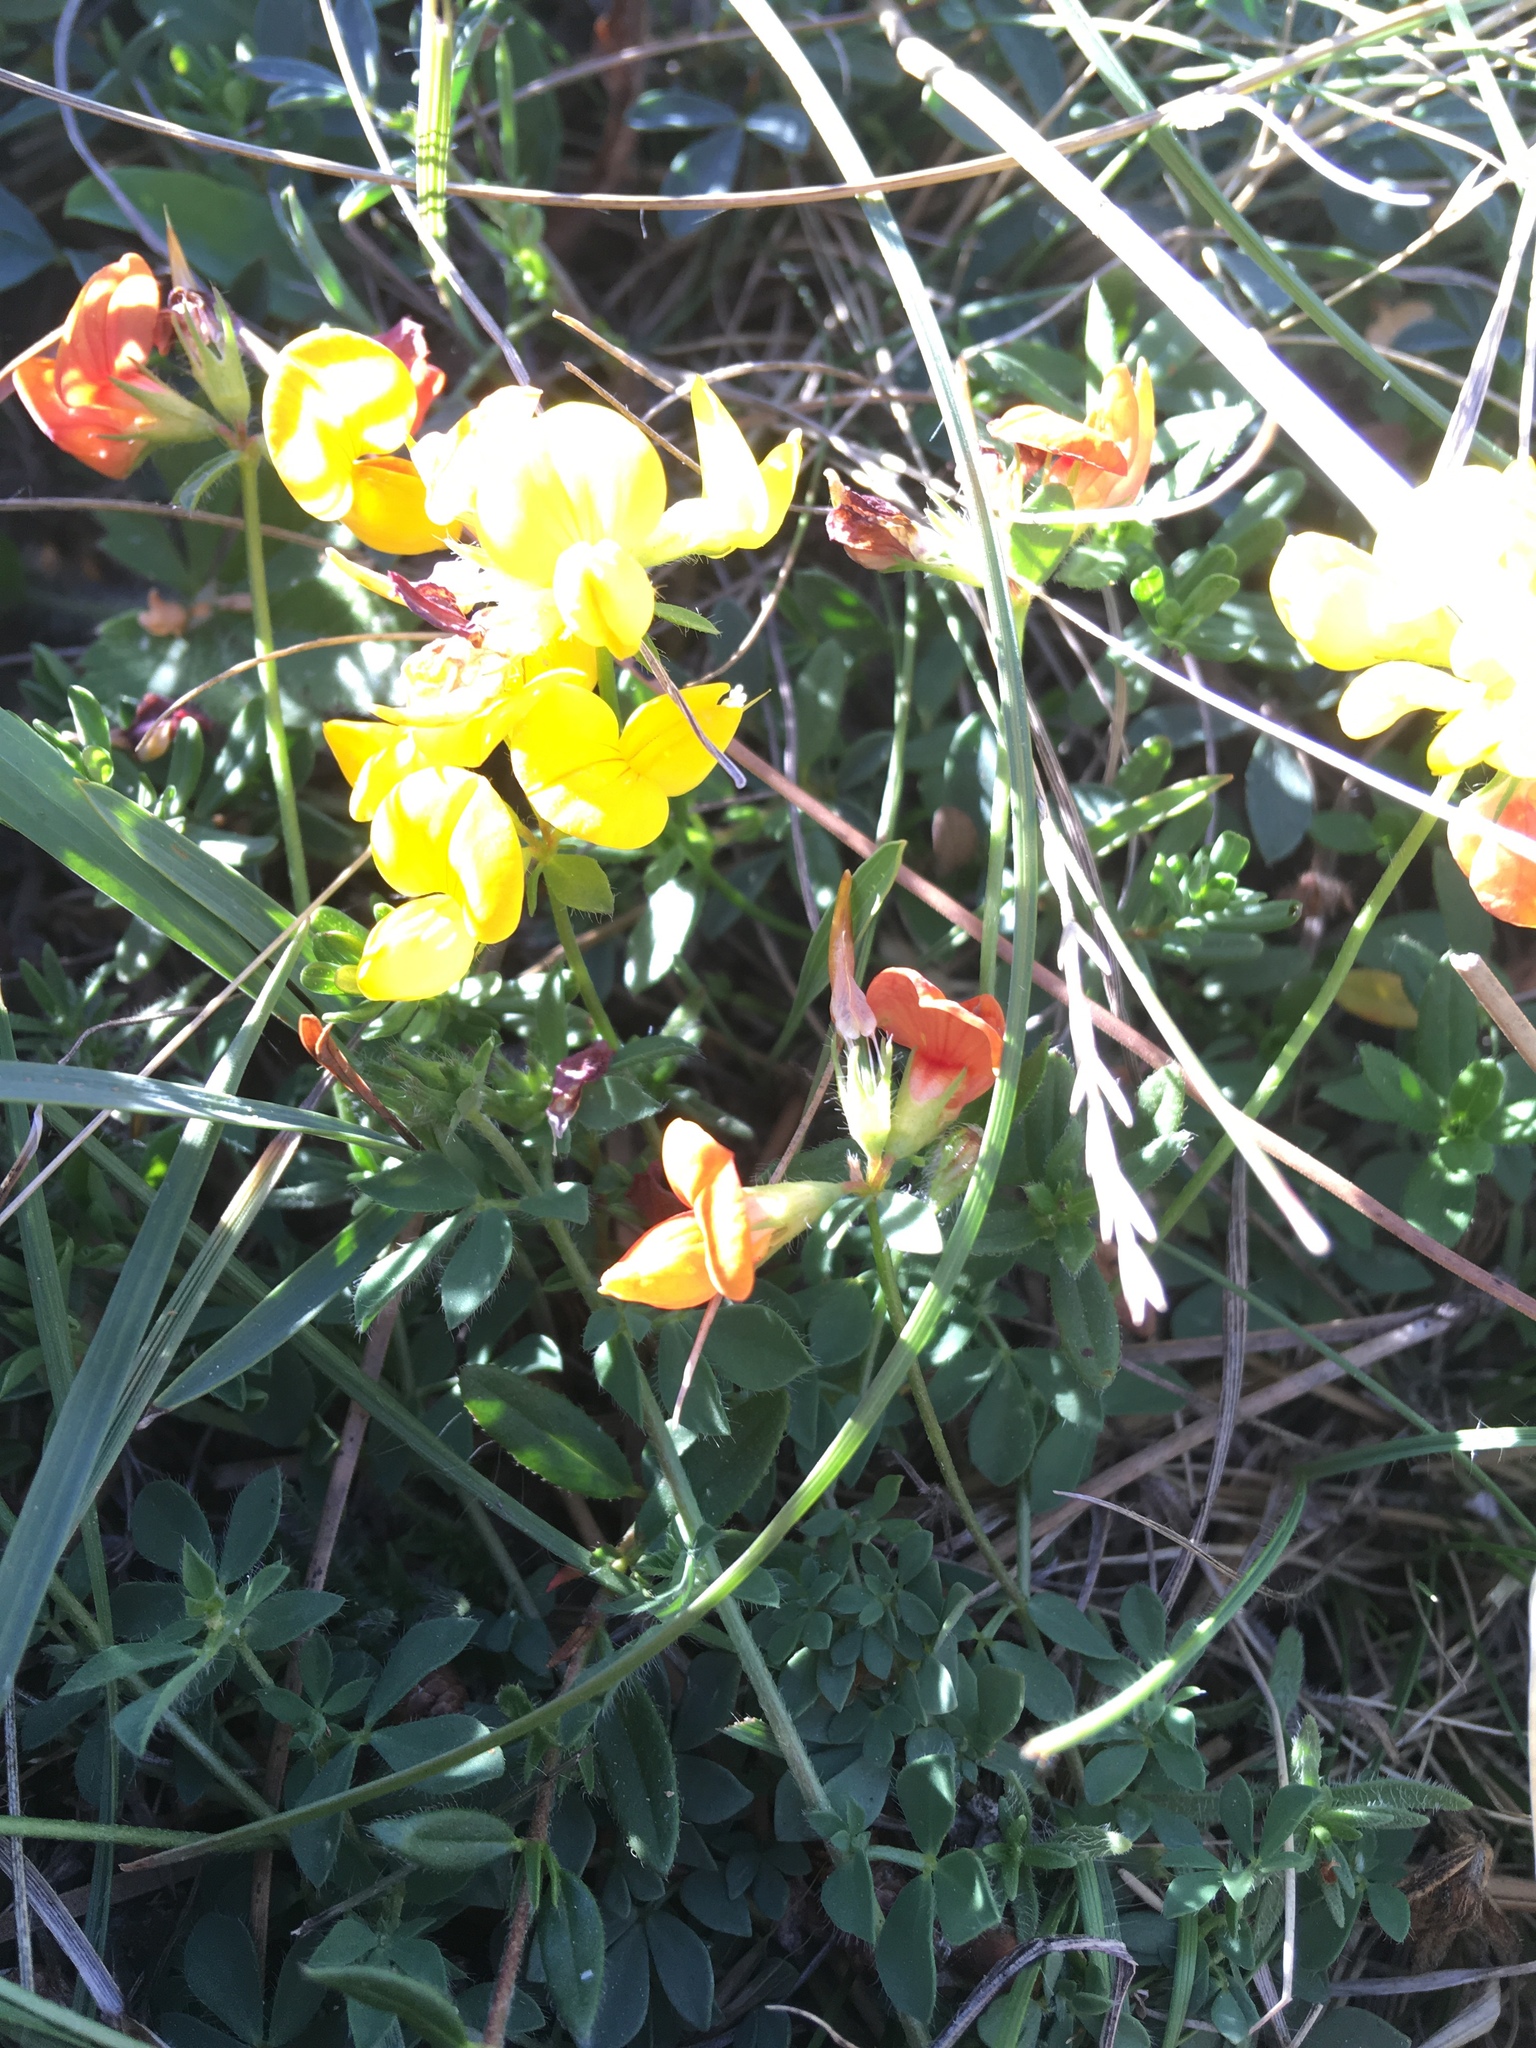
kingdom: Plantae
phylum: Tracheophyta
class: Magnoliopsida
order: Fabales
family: Fabaceae
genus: Lotus
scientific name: Lotus corniculatus
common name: Common bird's-foot-trefoil
